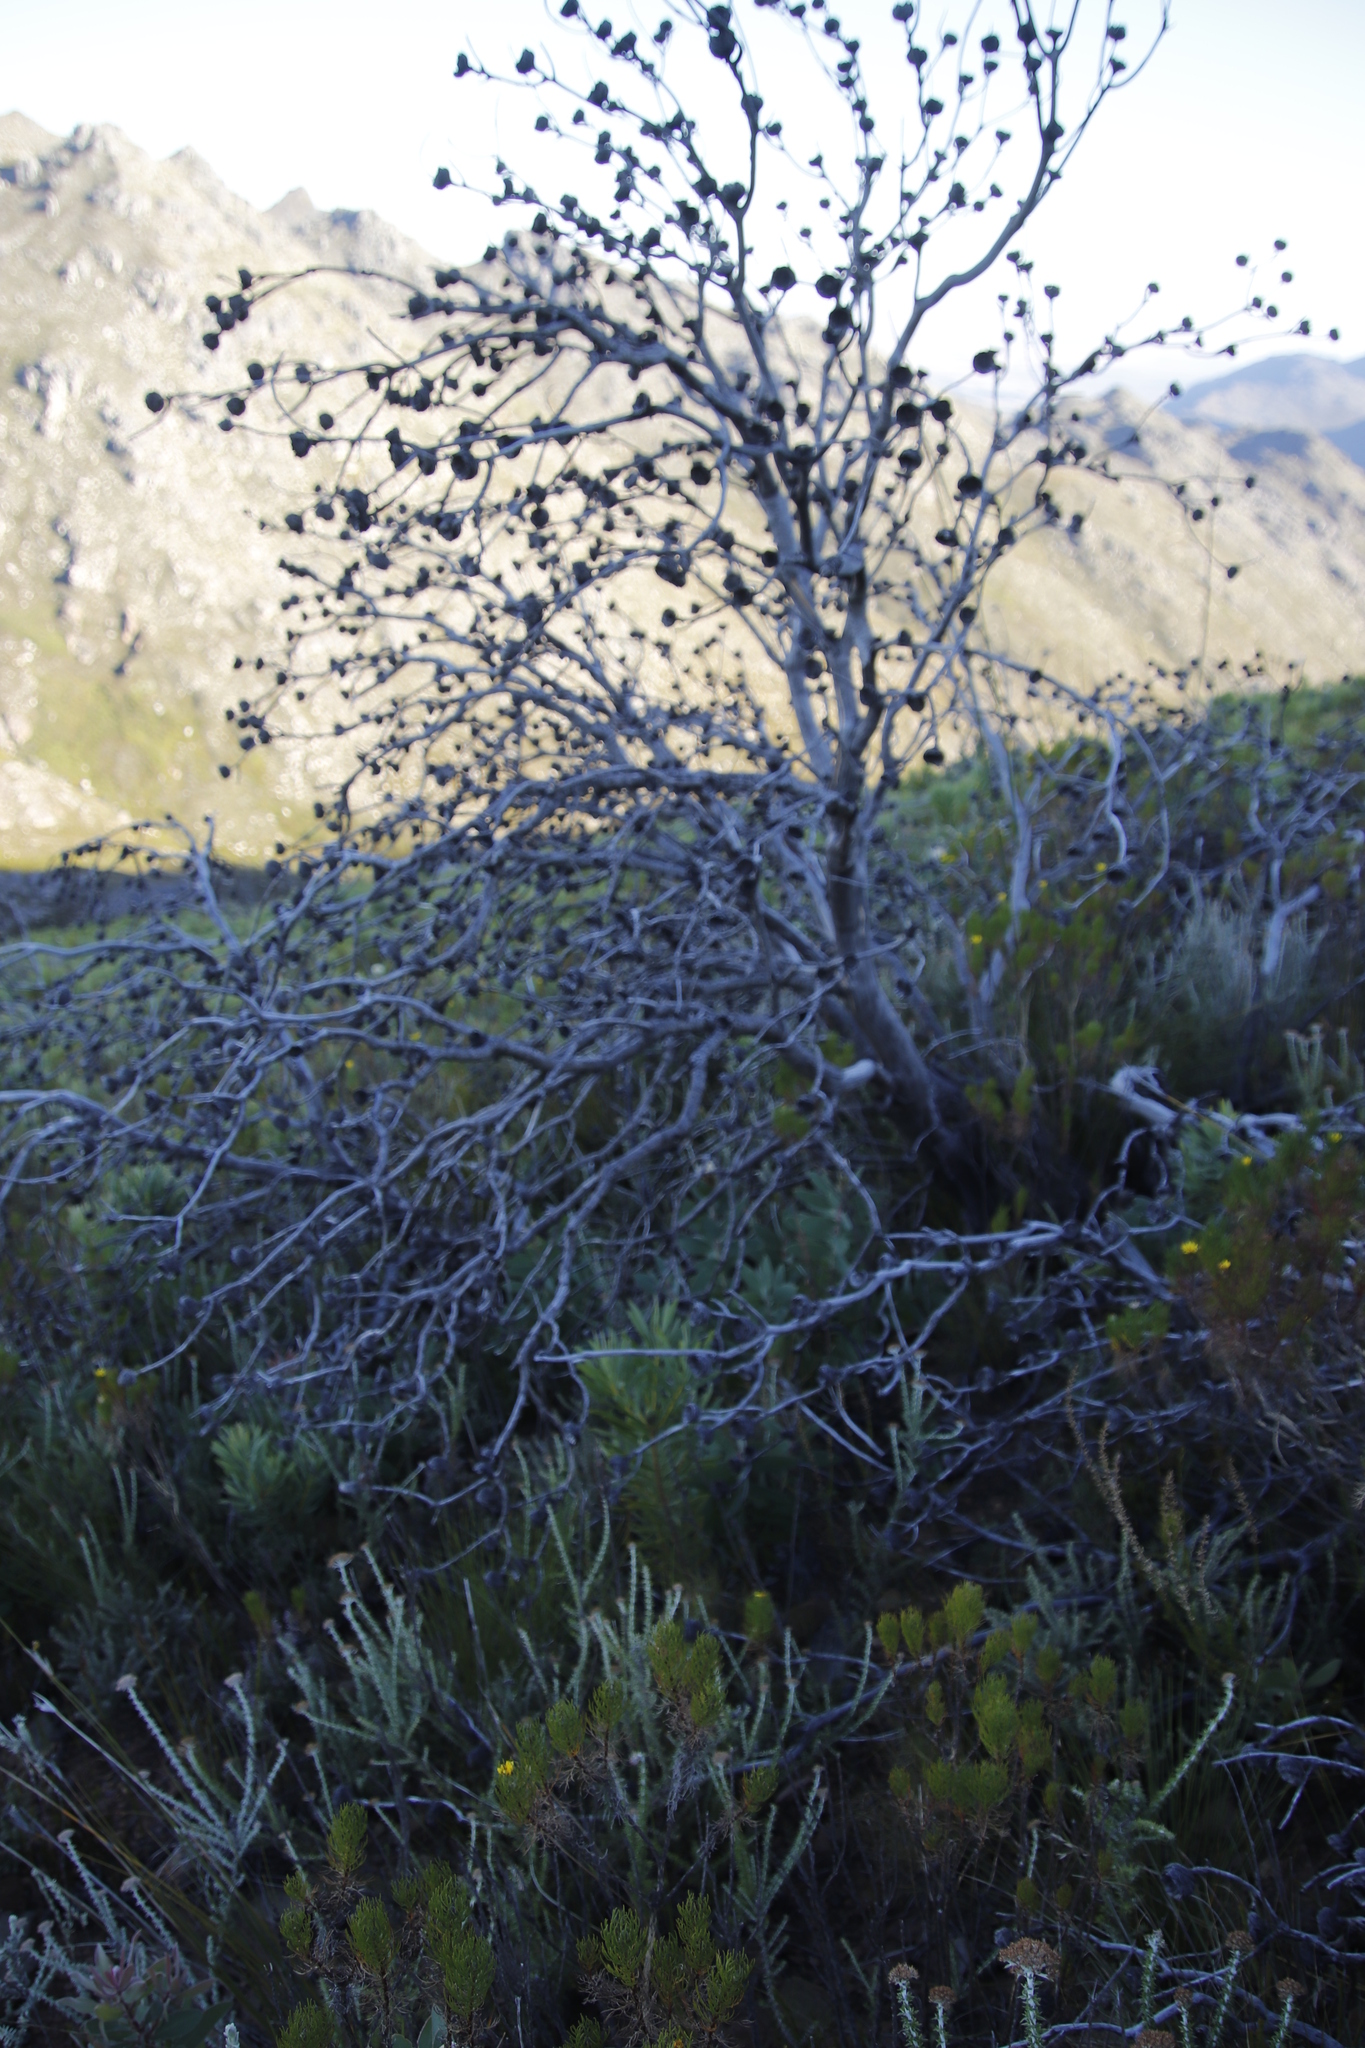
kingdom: Plantae
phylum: Tracheophyta
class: Magnoliopsida
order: Proteales
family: Proteaceae
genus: Protea
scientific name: Protea lacticolor
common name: Hottentot sugarbush
